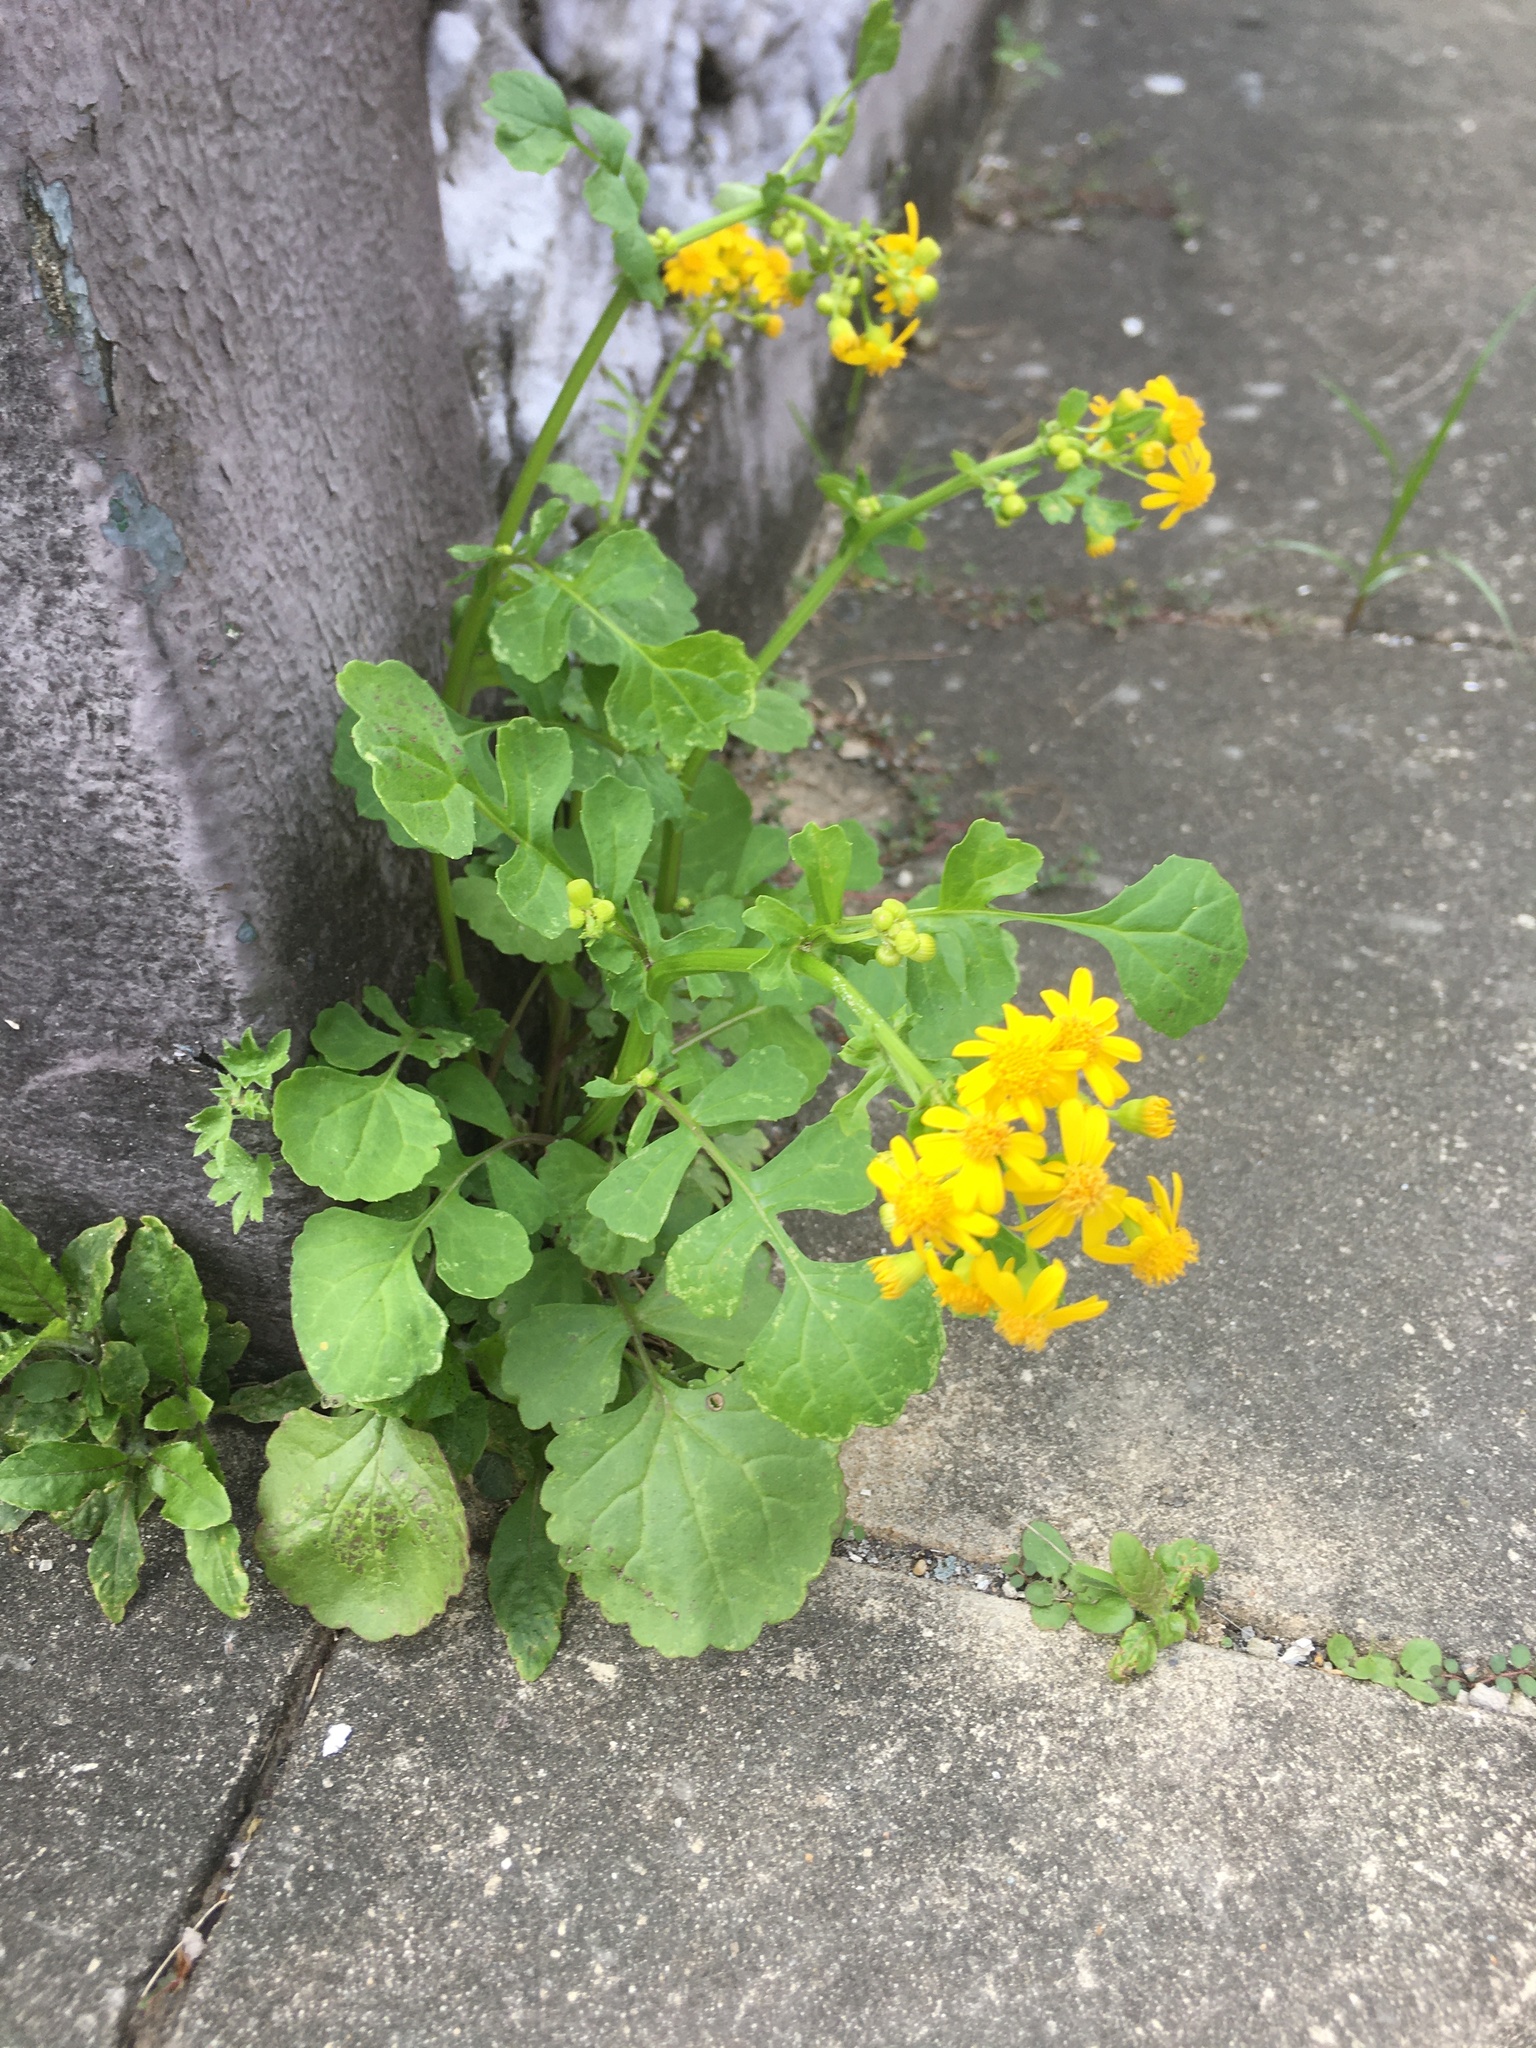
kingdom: Plantae
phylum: Tracheophyta
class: Magnoliopsida
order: Asterales
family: Asteraceae
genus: Packera
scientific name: Packera glabella
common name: Butterweed
